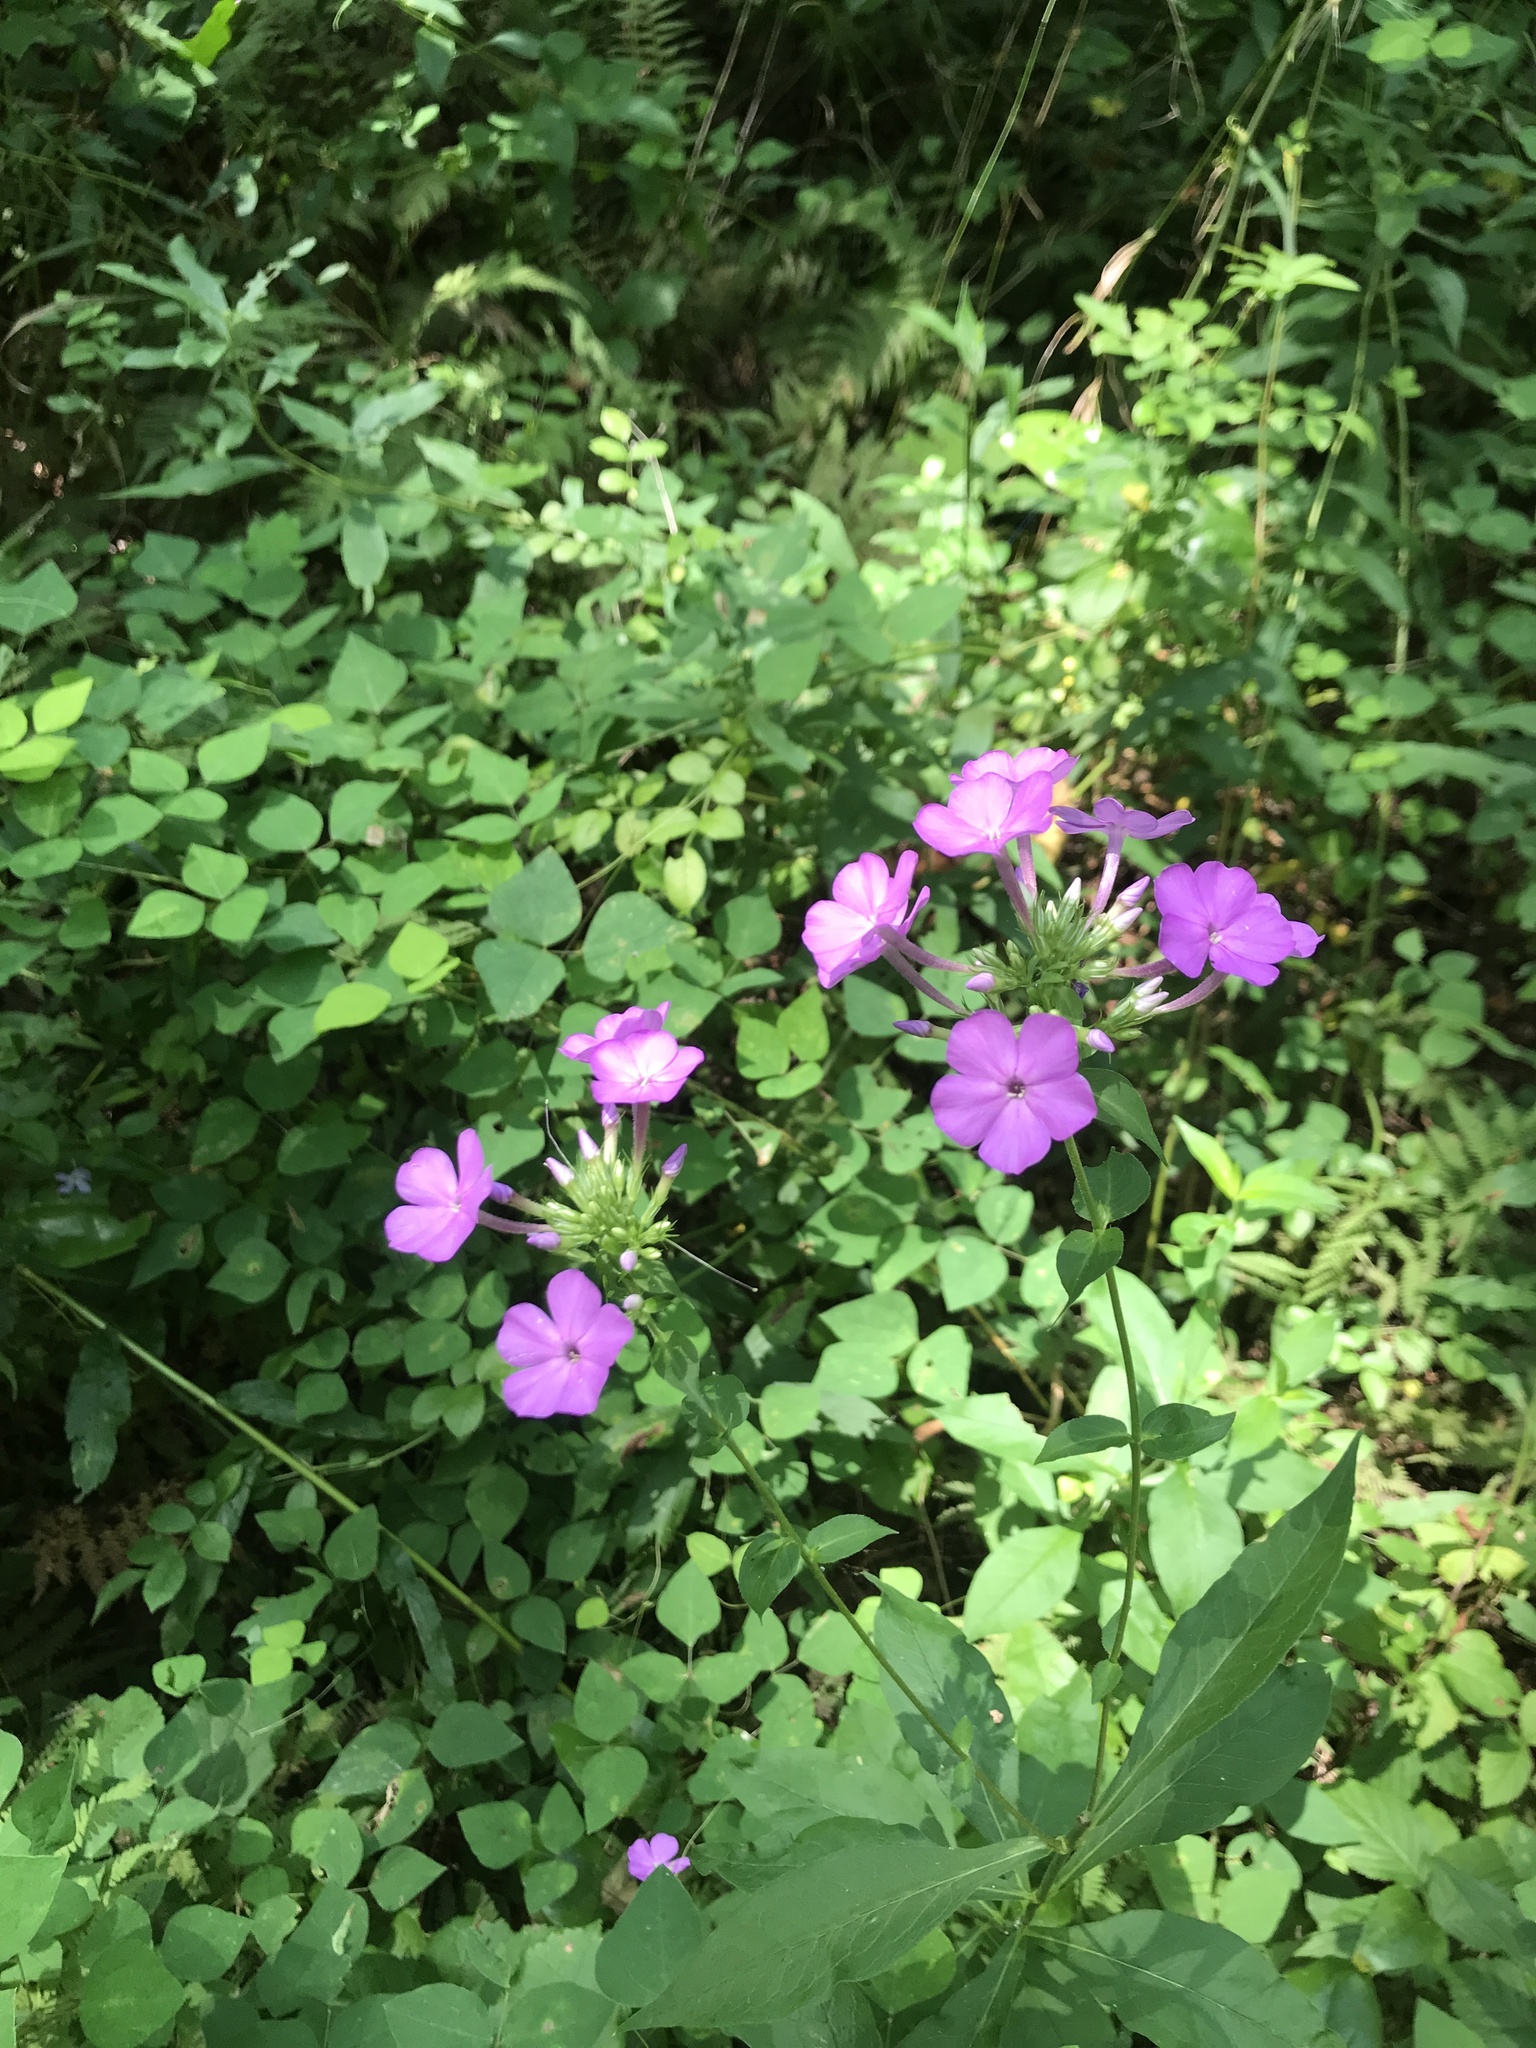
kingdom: Plantae
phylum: Tracheophyta
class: Magnoliopsida
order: Ericales
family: Polemoniaceae
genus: Phlox
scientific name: Phlox paniculata
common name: Fall phlox
